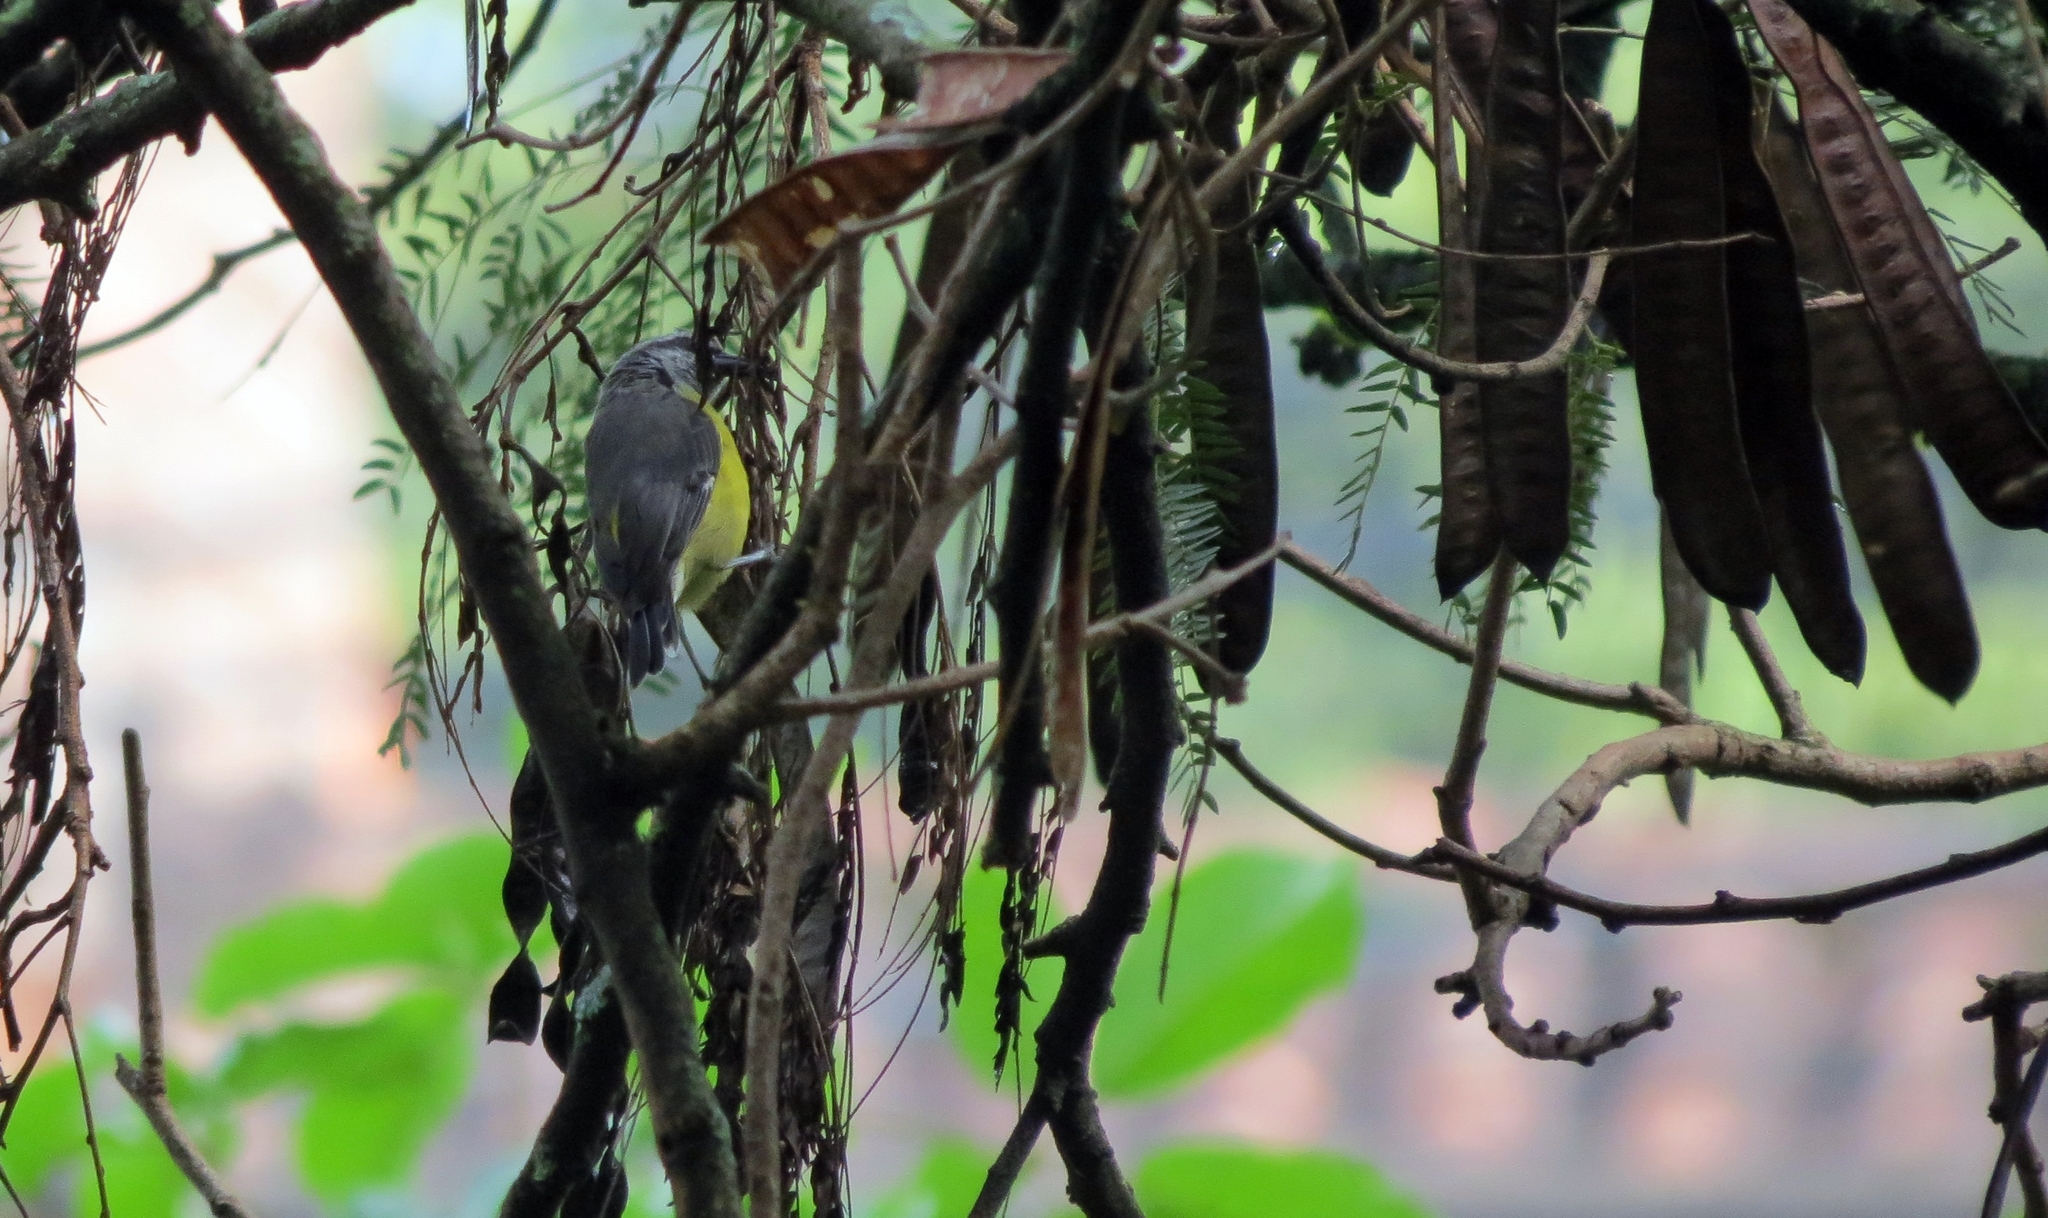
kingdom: Animalia
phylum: Chordata
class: Aves
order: Passeriformes
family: Thraupidae
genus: Coereba
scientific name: Coereba flaveola
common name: Bananaquit
